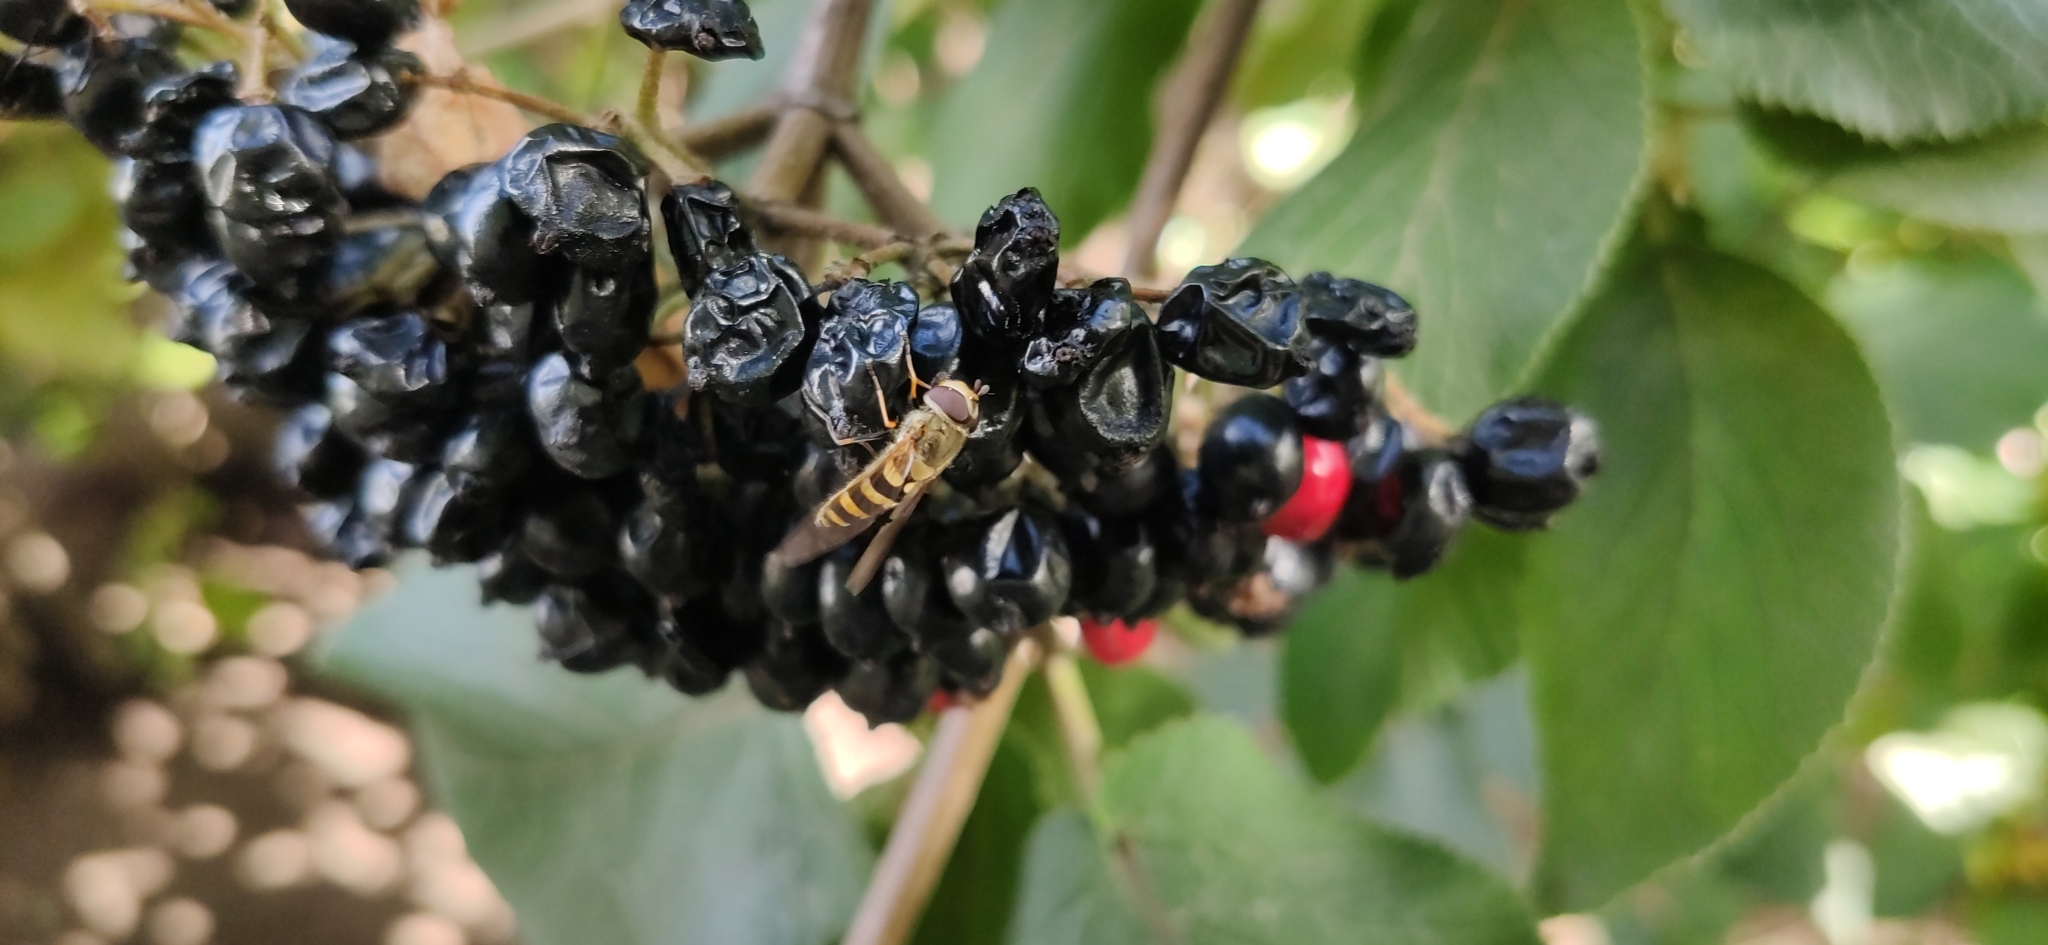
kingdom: Animalia
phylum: Arthropoda
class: Insecta
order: Diptera
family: Syrphidae
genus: Syrphus
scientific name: Syrphus
